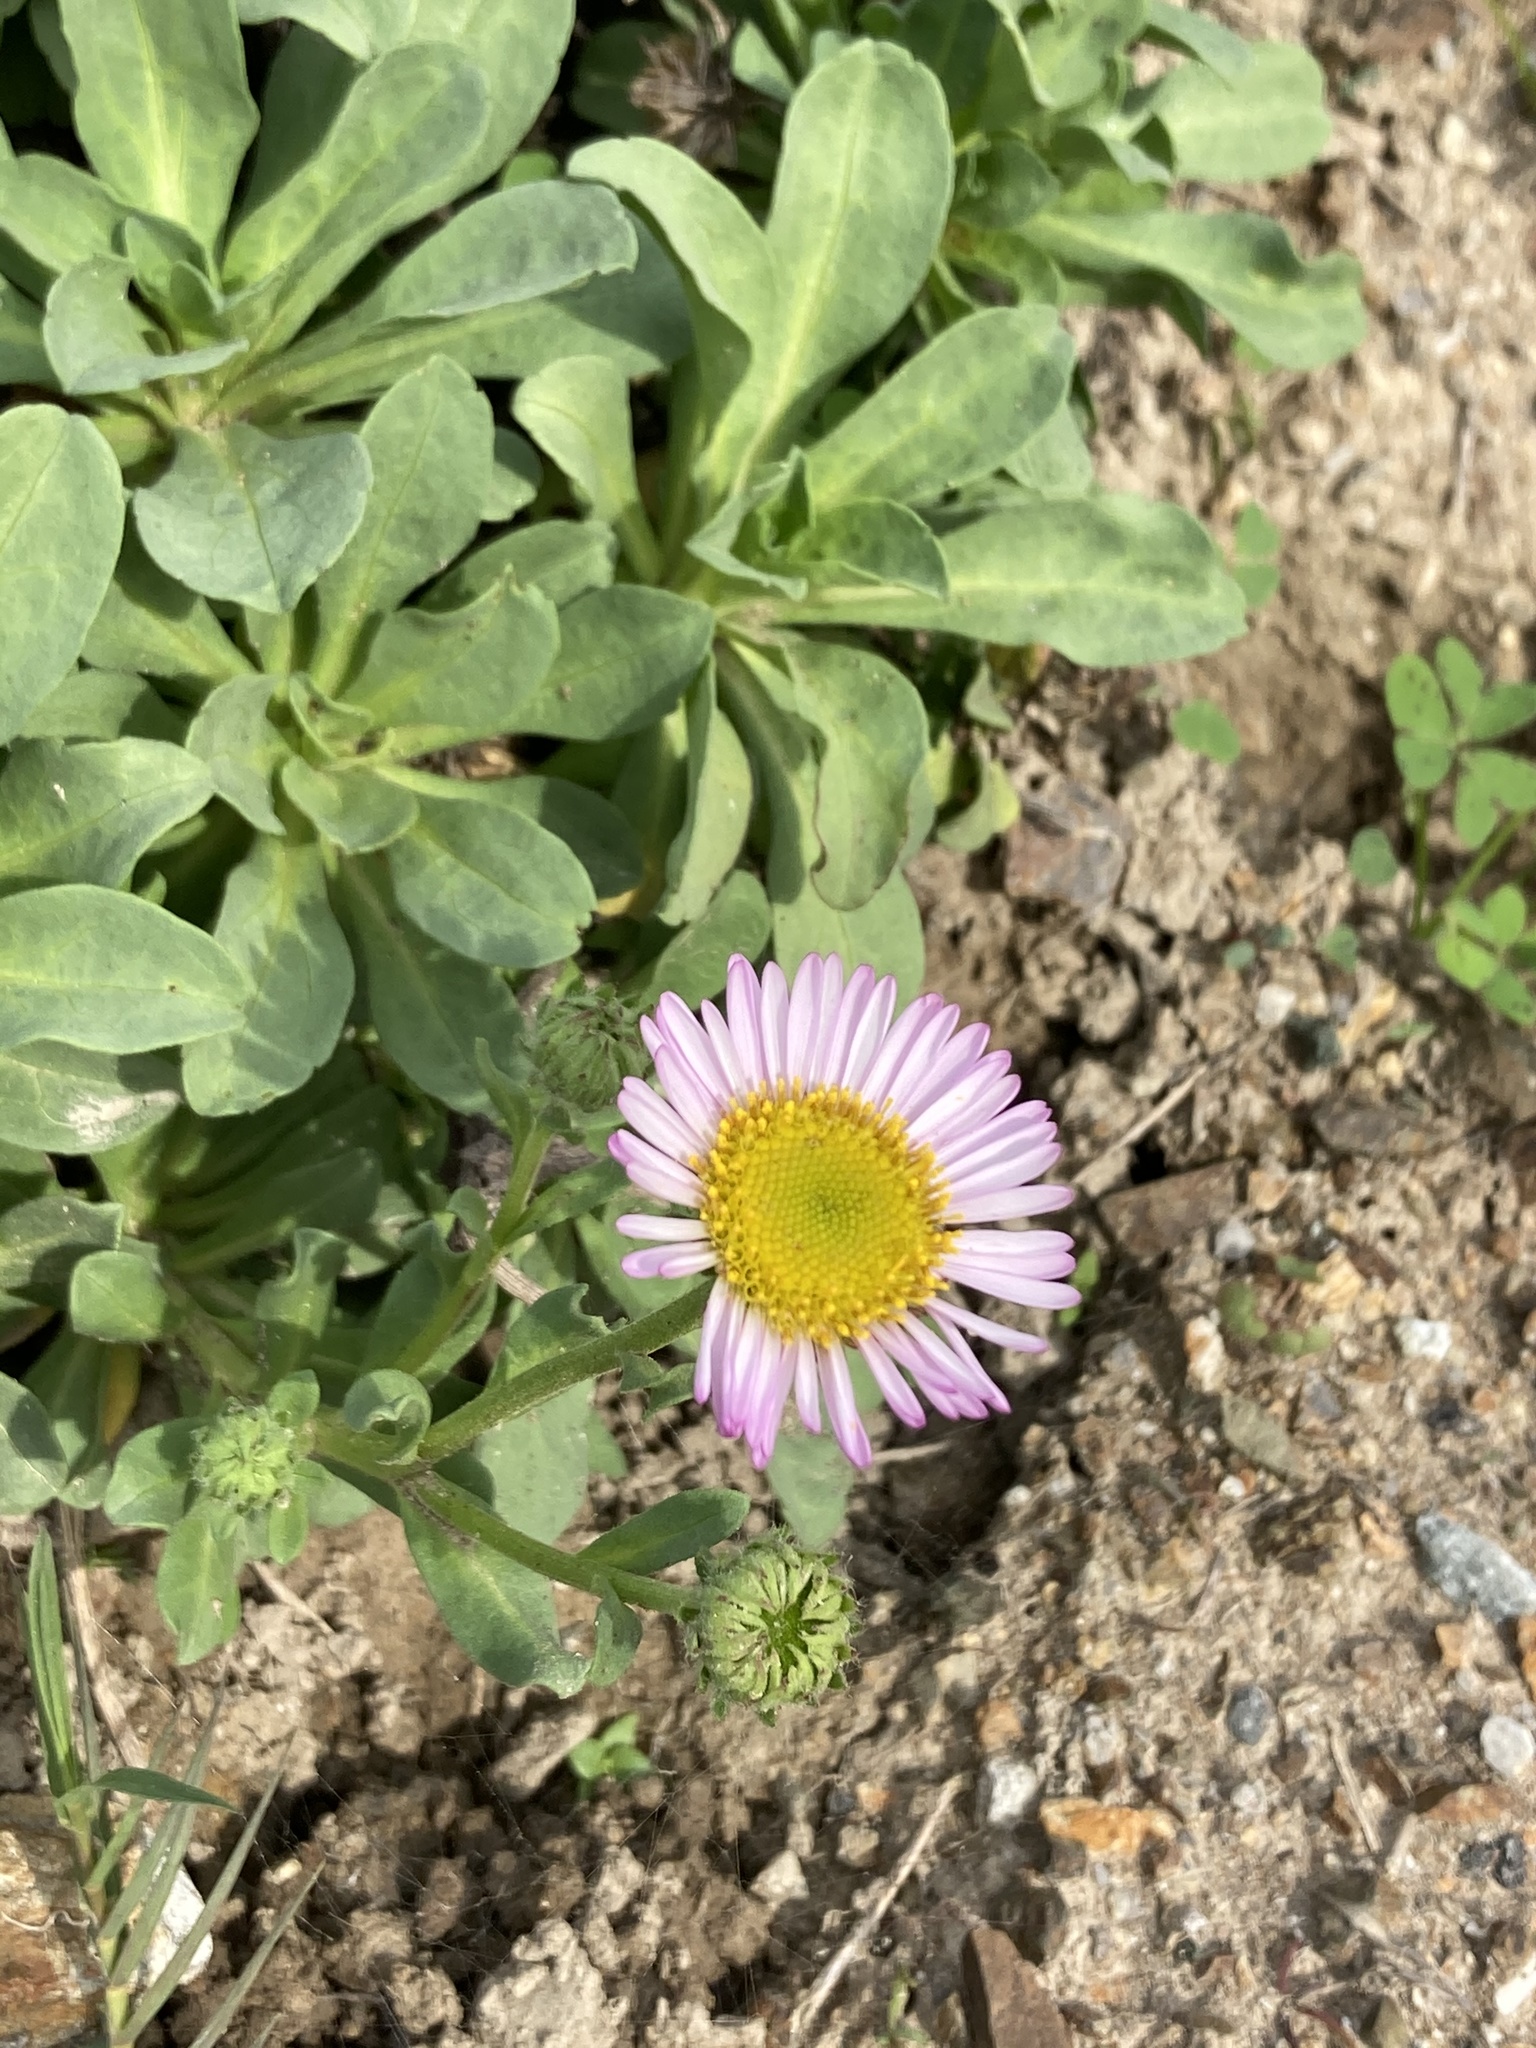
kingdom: Plantae
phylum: Tracheophyta
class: Magnoliopsida
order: Asterales
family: Asteraceae
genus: Erigeron
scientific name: Erigeron glaucus
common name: Seaside daisy
